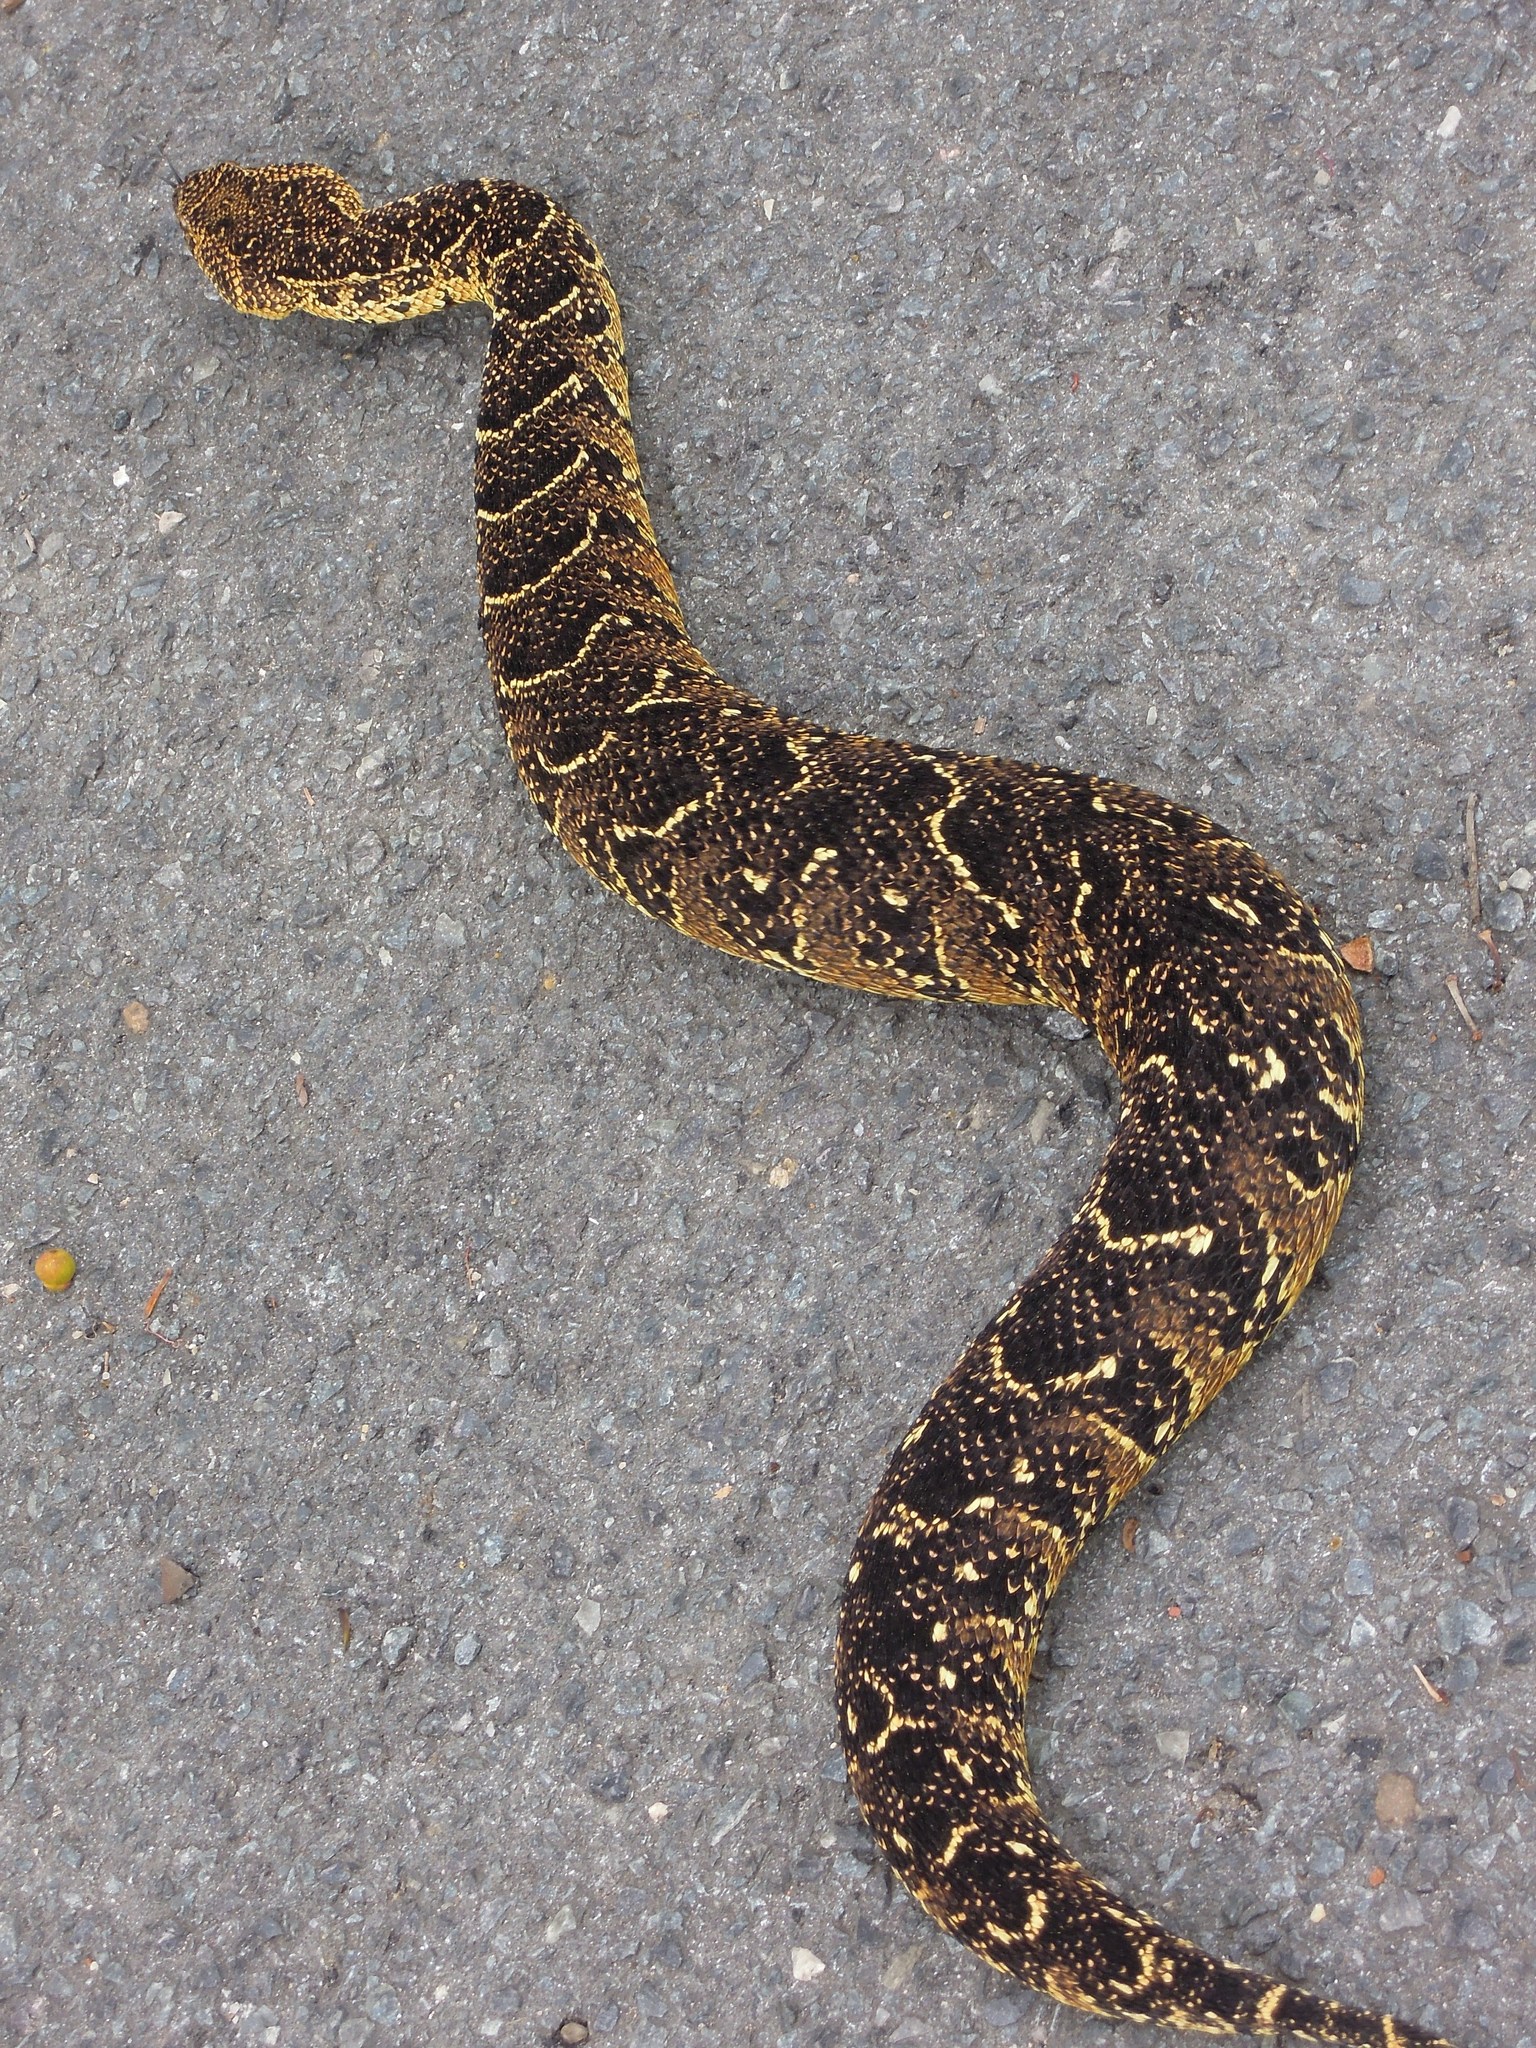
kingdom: Animalia
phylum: Chordata
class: Squamata
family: Viperidae
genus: Bitis
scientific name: Bitis arietans
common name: Puff adder
